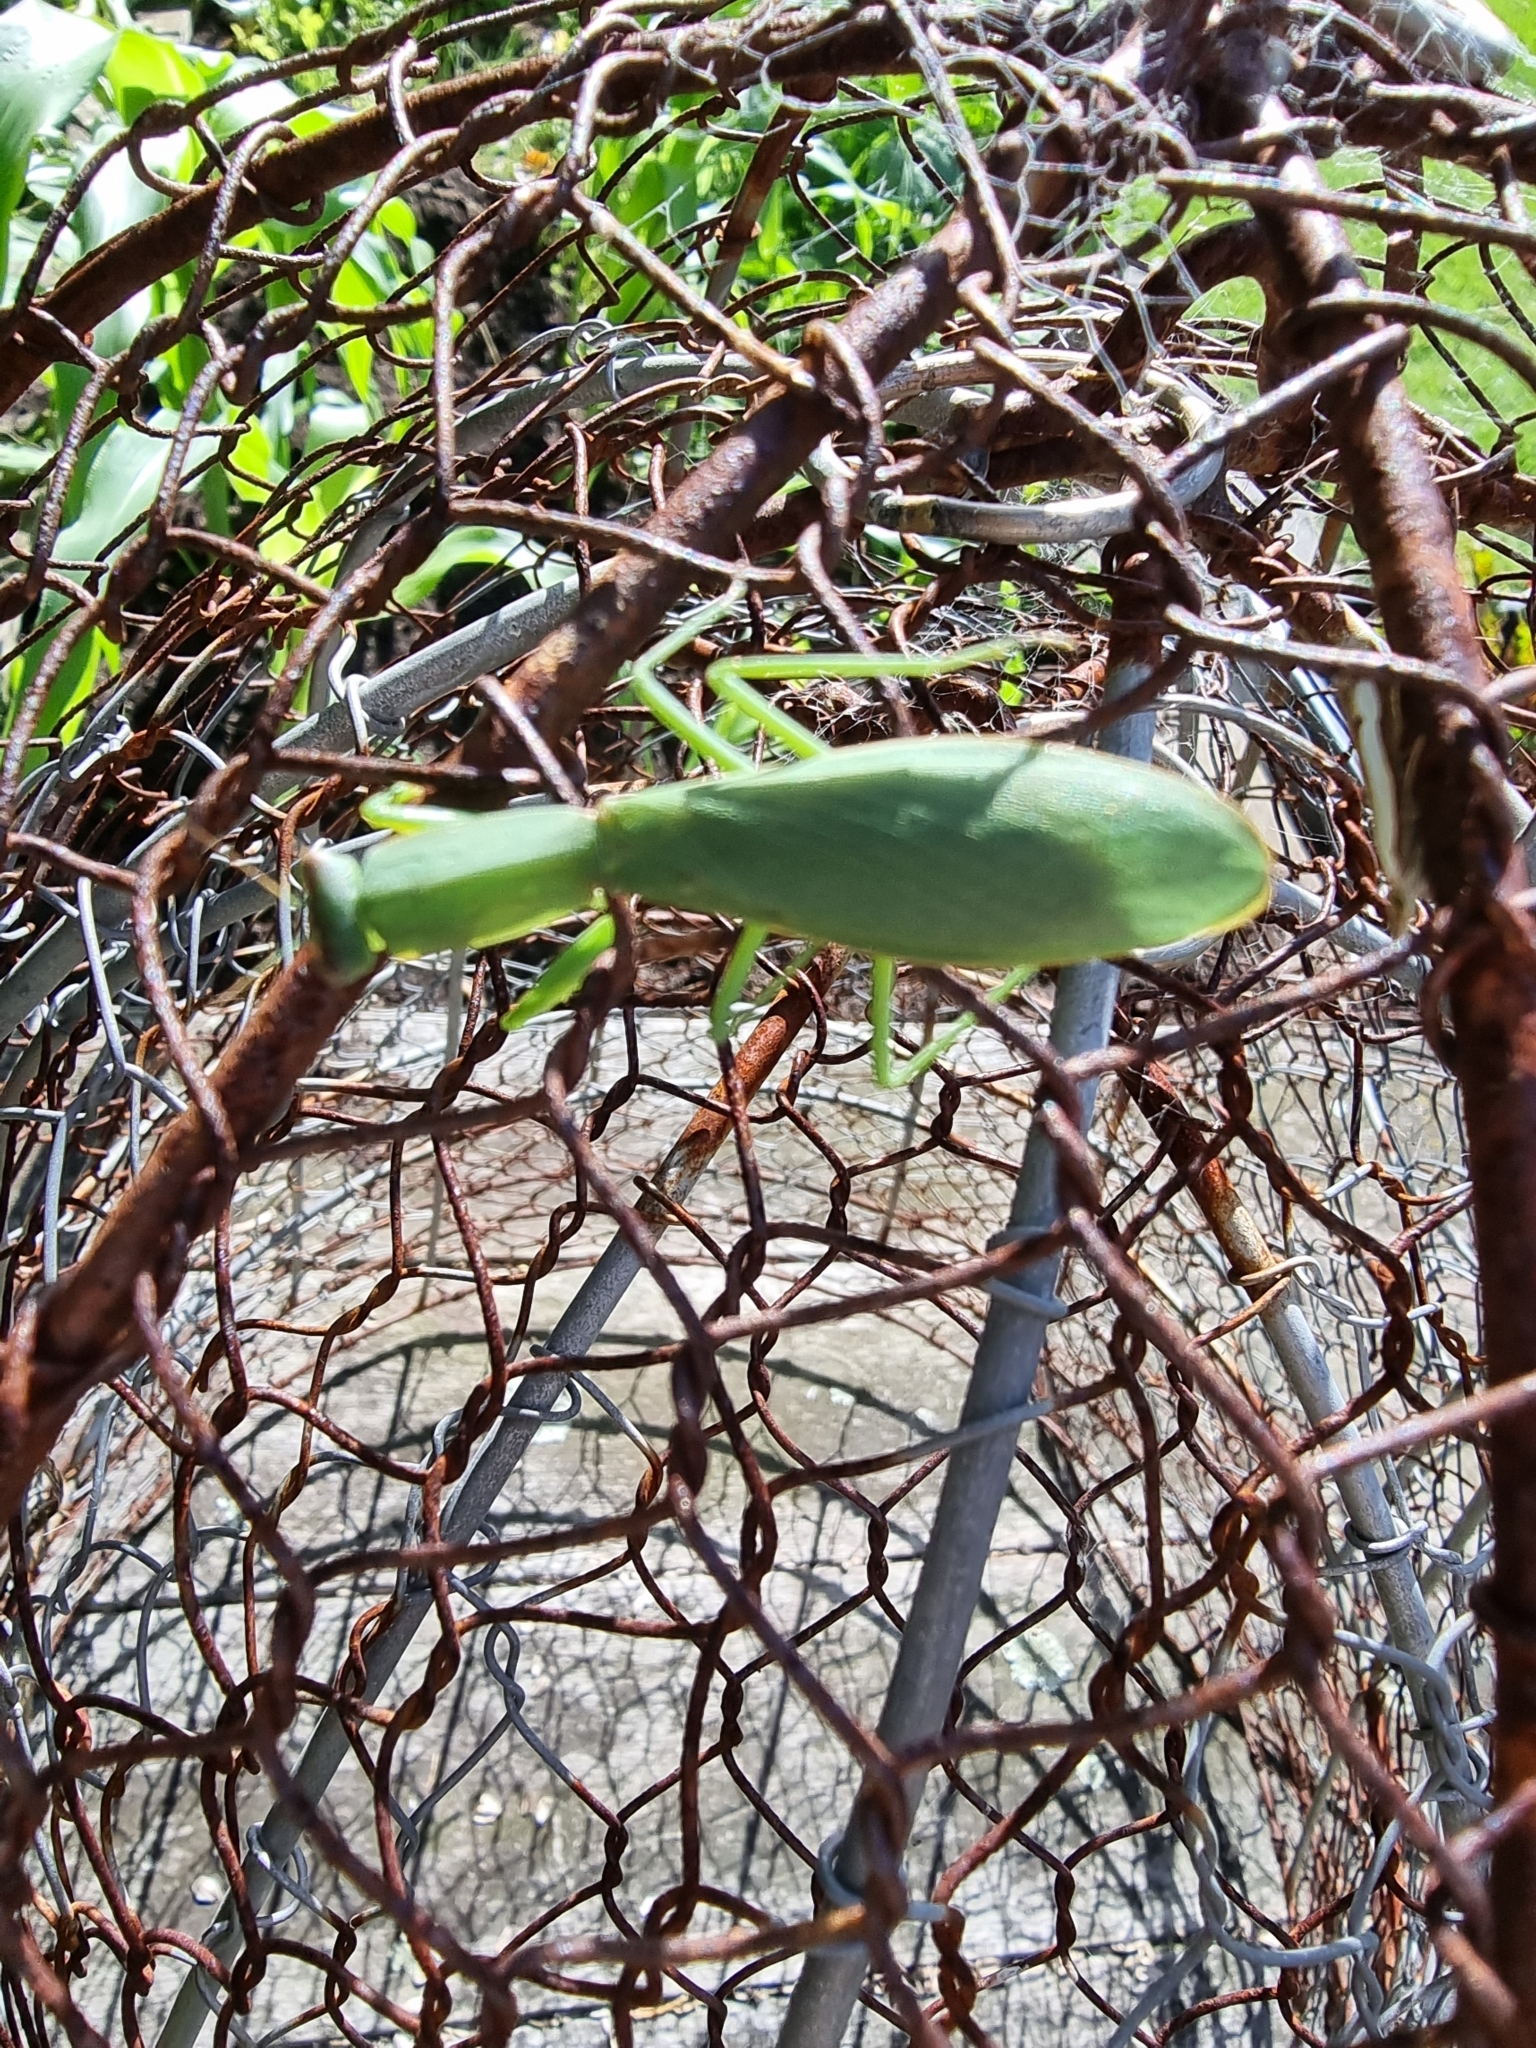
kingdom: Animalia
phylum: Arthropoda
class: Insecta
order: Mantodea
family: Mantidae
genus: Orthodera
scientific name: Orthodera novaezealandiae
